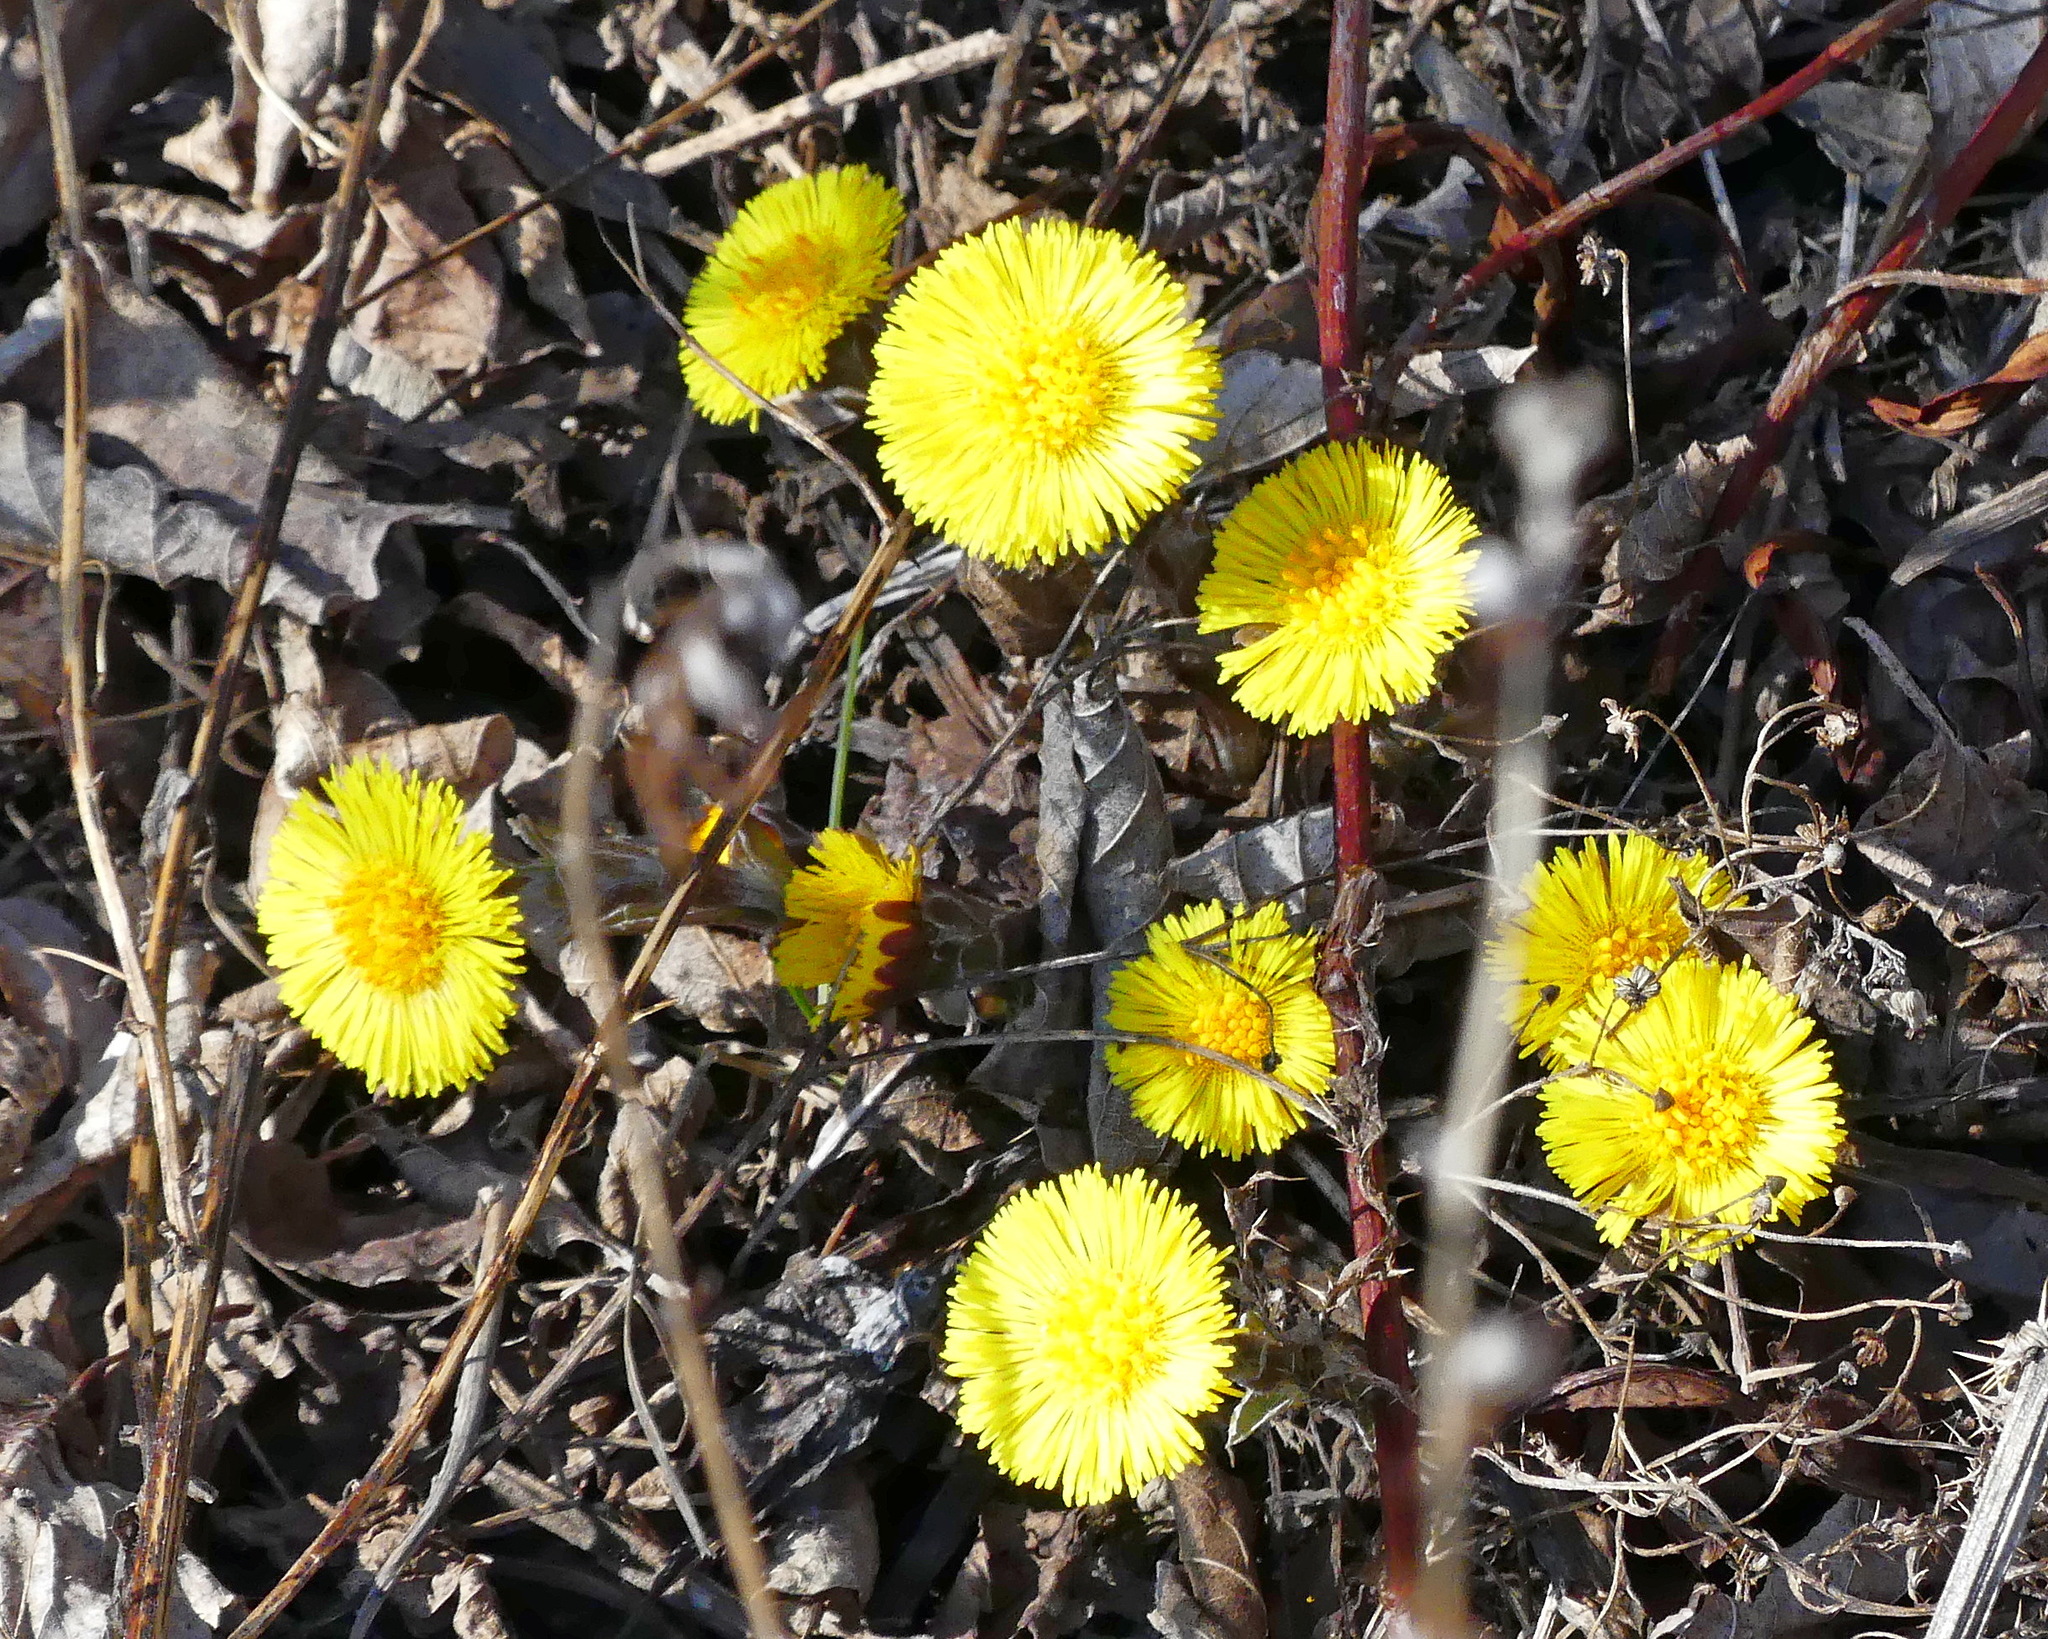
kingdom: Plantae
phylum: Tracheophyta
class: Magnoliopsida
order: Asterales
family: Asteraceae
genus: Tussilago
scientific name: Tussilago farfara
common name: Coltsfoot
